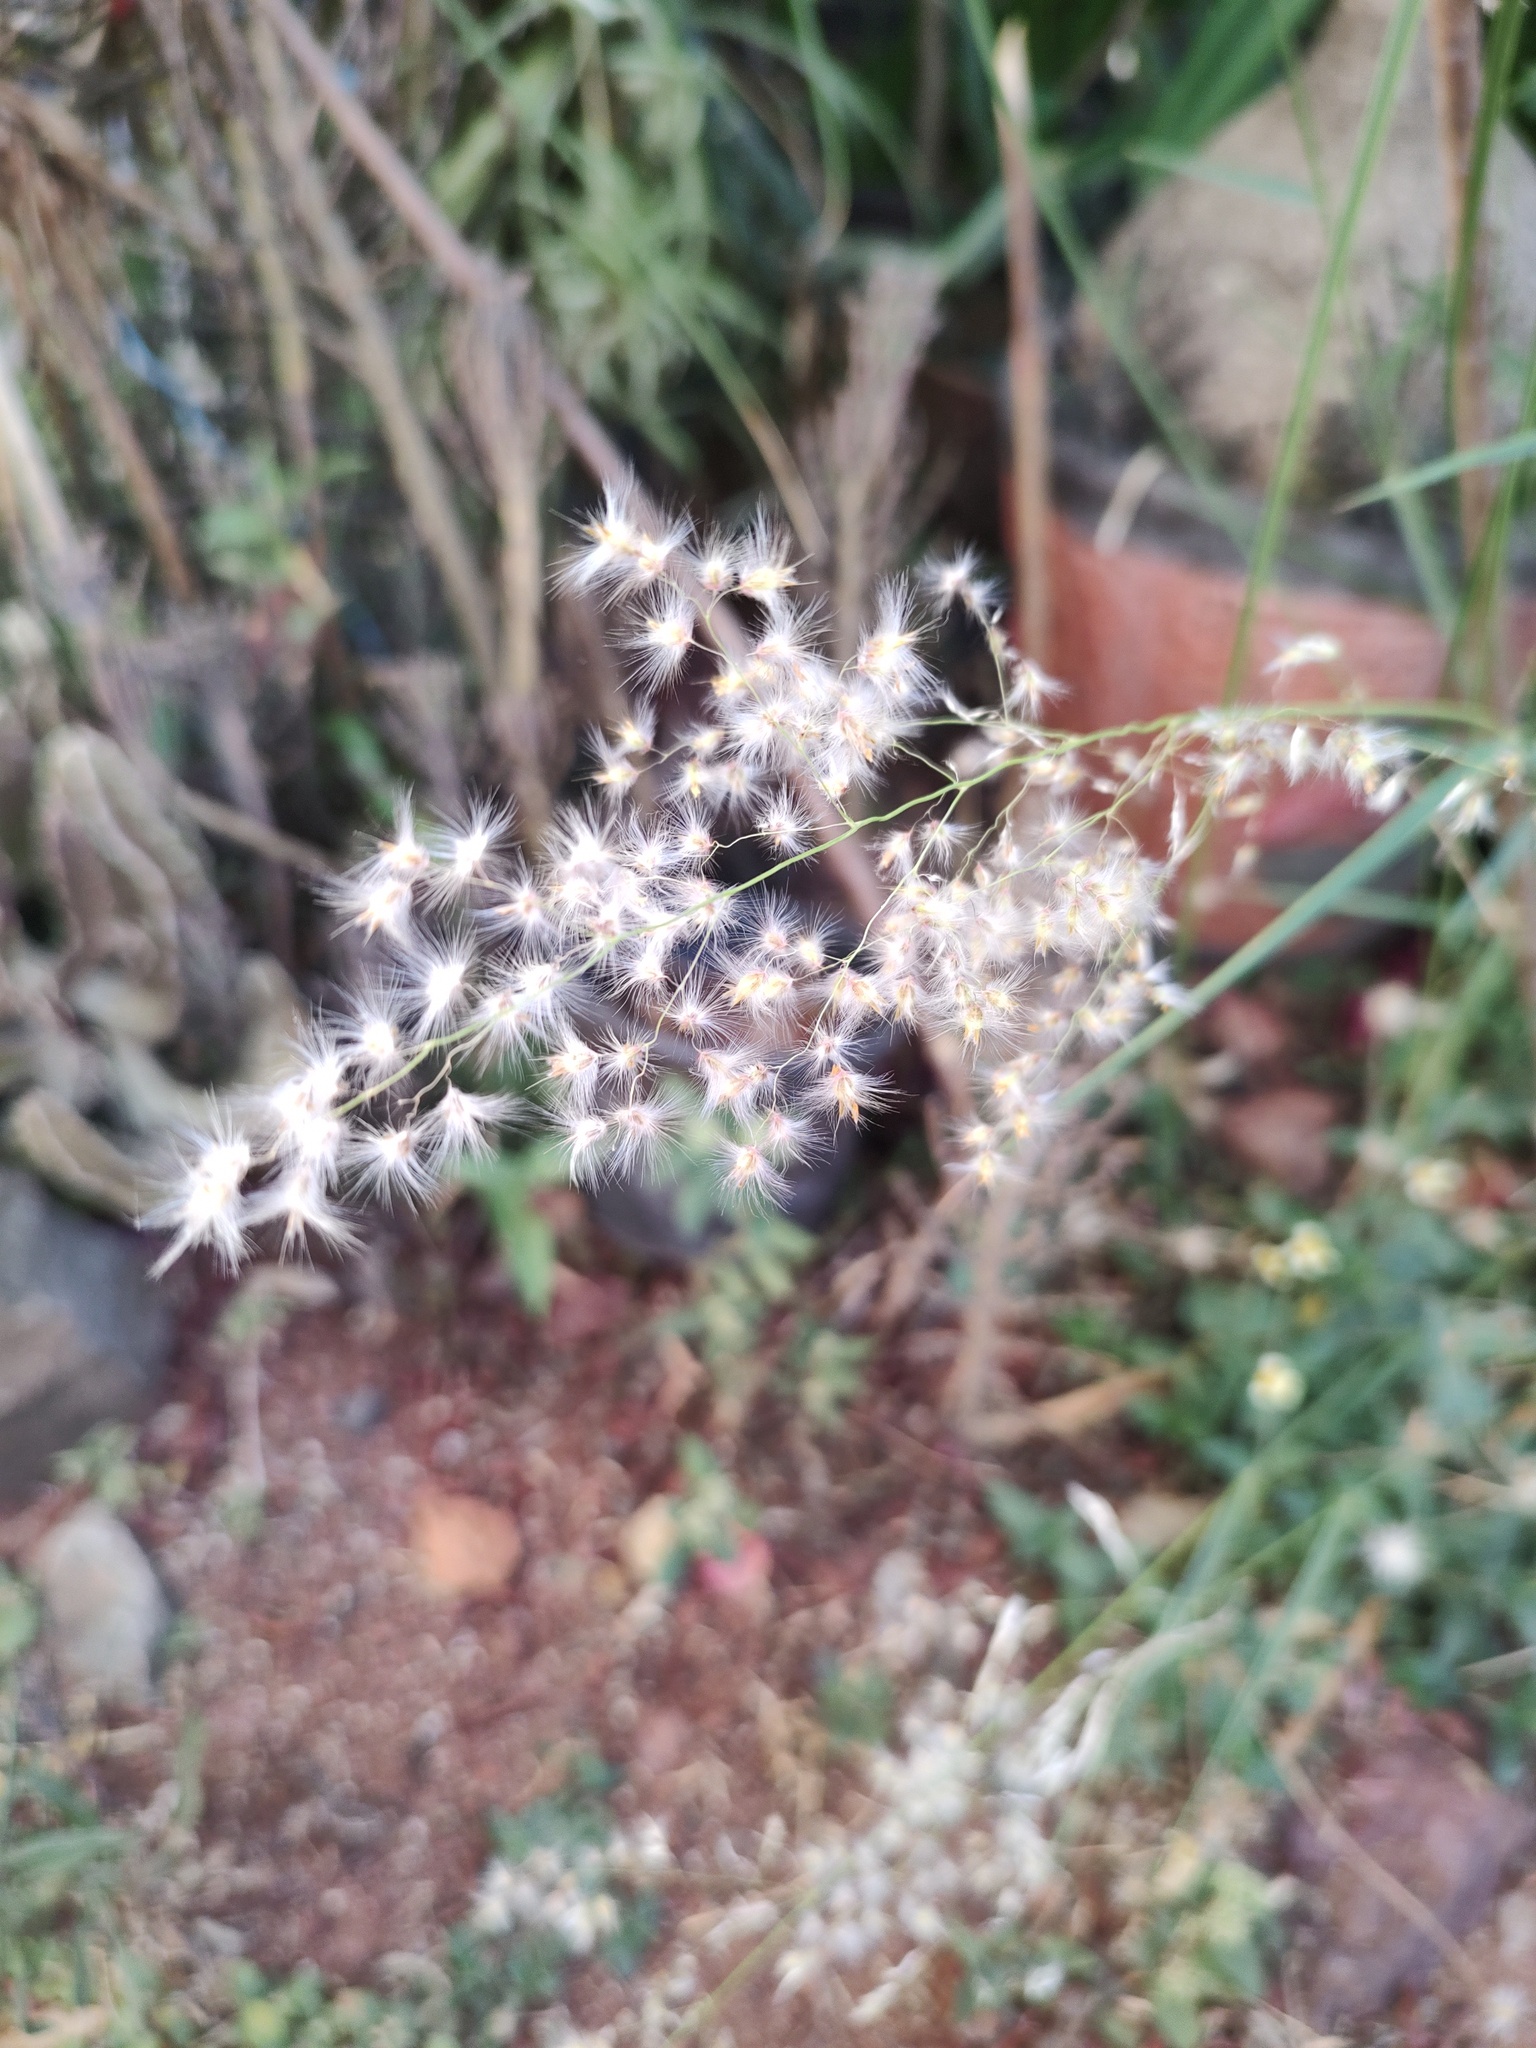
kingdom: Plantae
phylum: Tracheophyta
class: Liliopsida
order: Poales
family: Poaceae
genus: Melinis
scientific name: Melinis repens
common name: Rose natal grass
